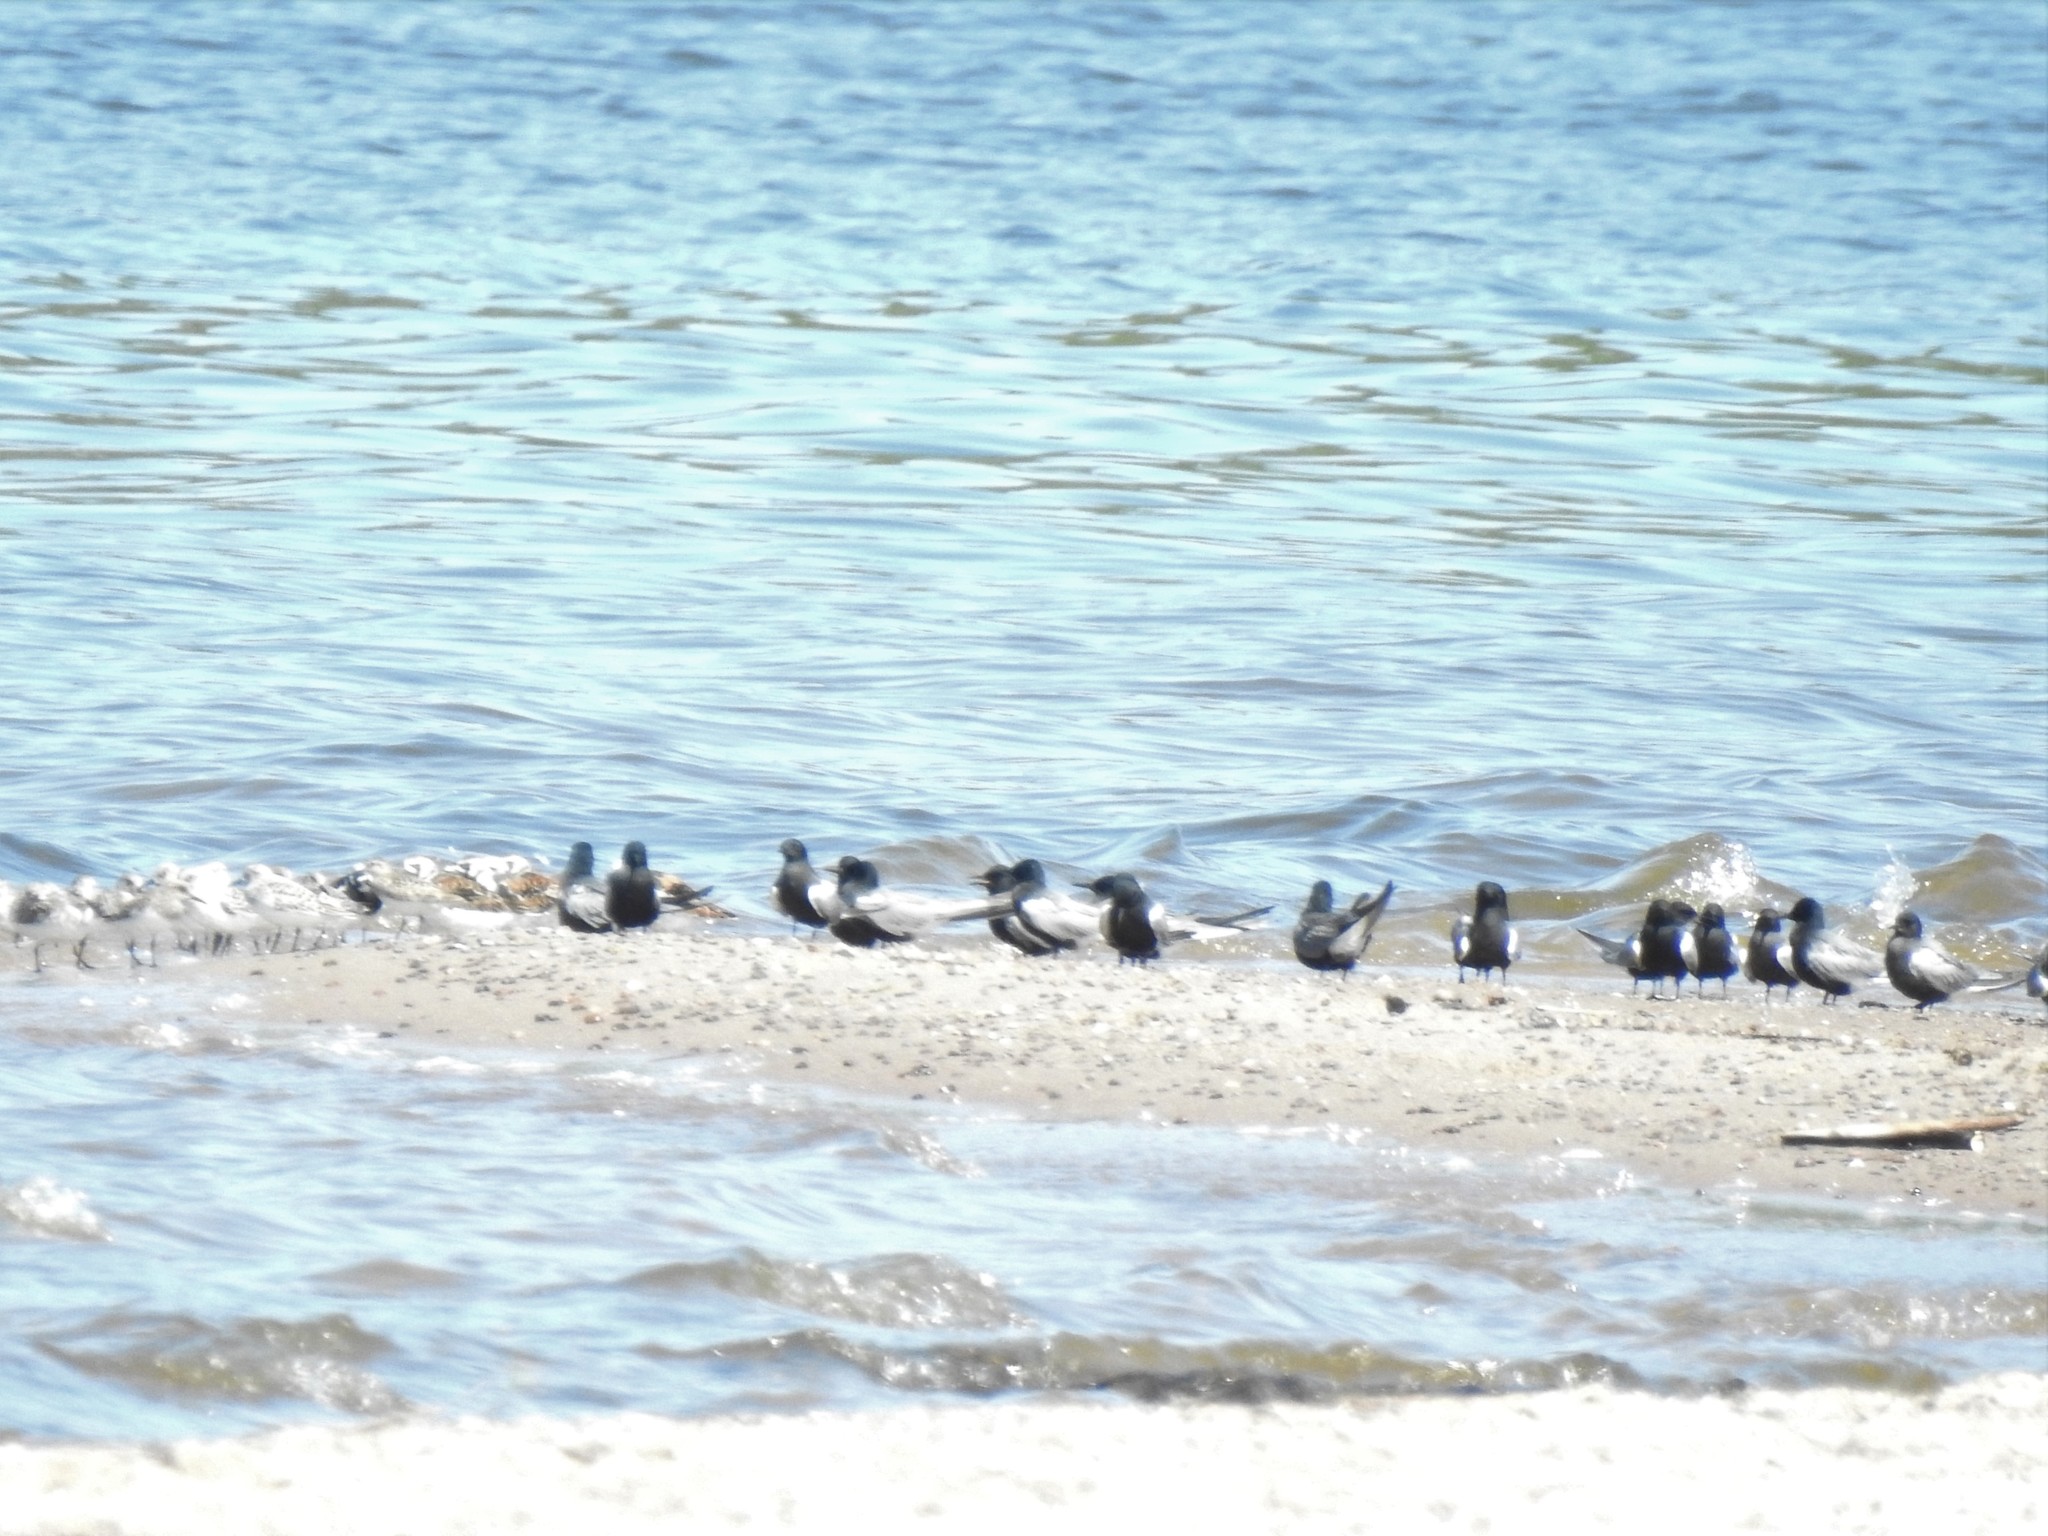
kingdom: Animalia
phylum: Chordata
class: Aves
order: Charadriiformes
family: Laridae
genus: Chlidonias
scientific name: Chlidonias niger
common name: Black tern
